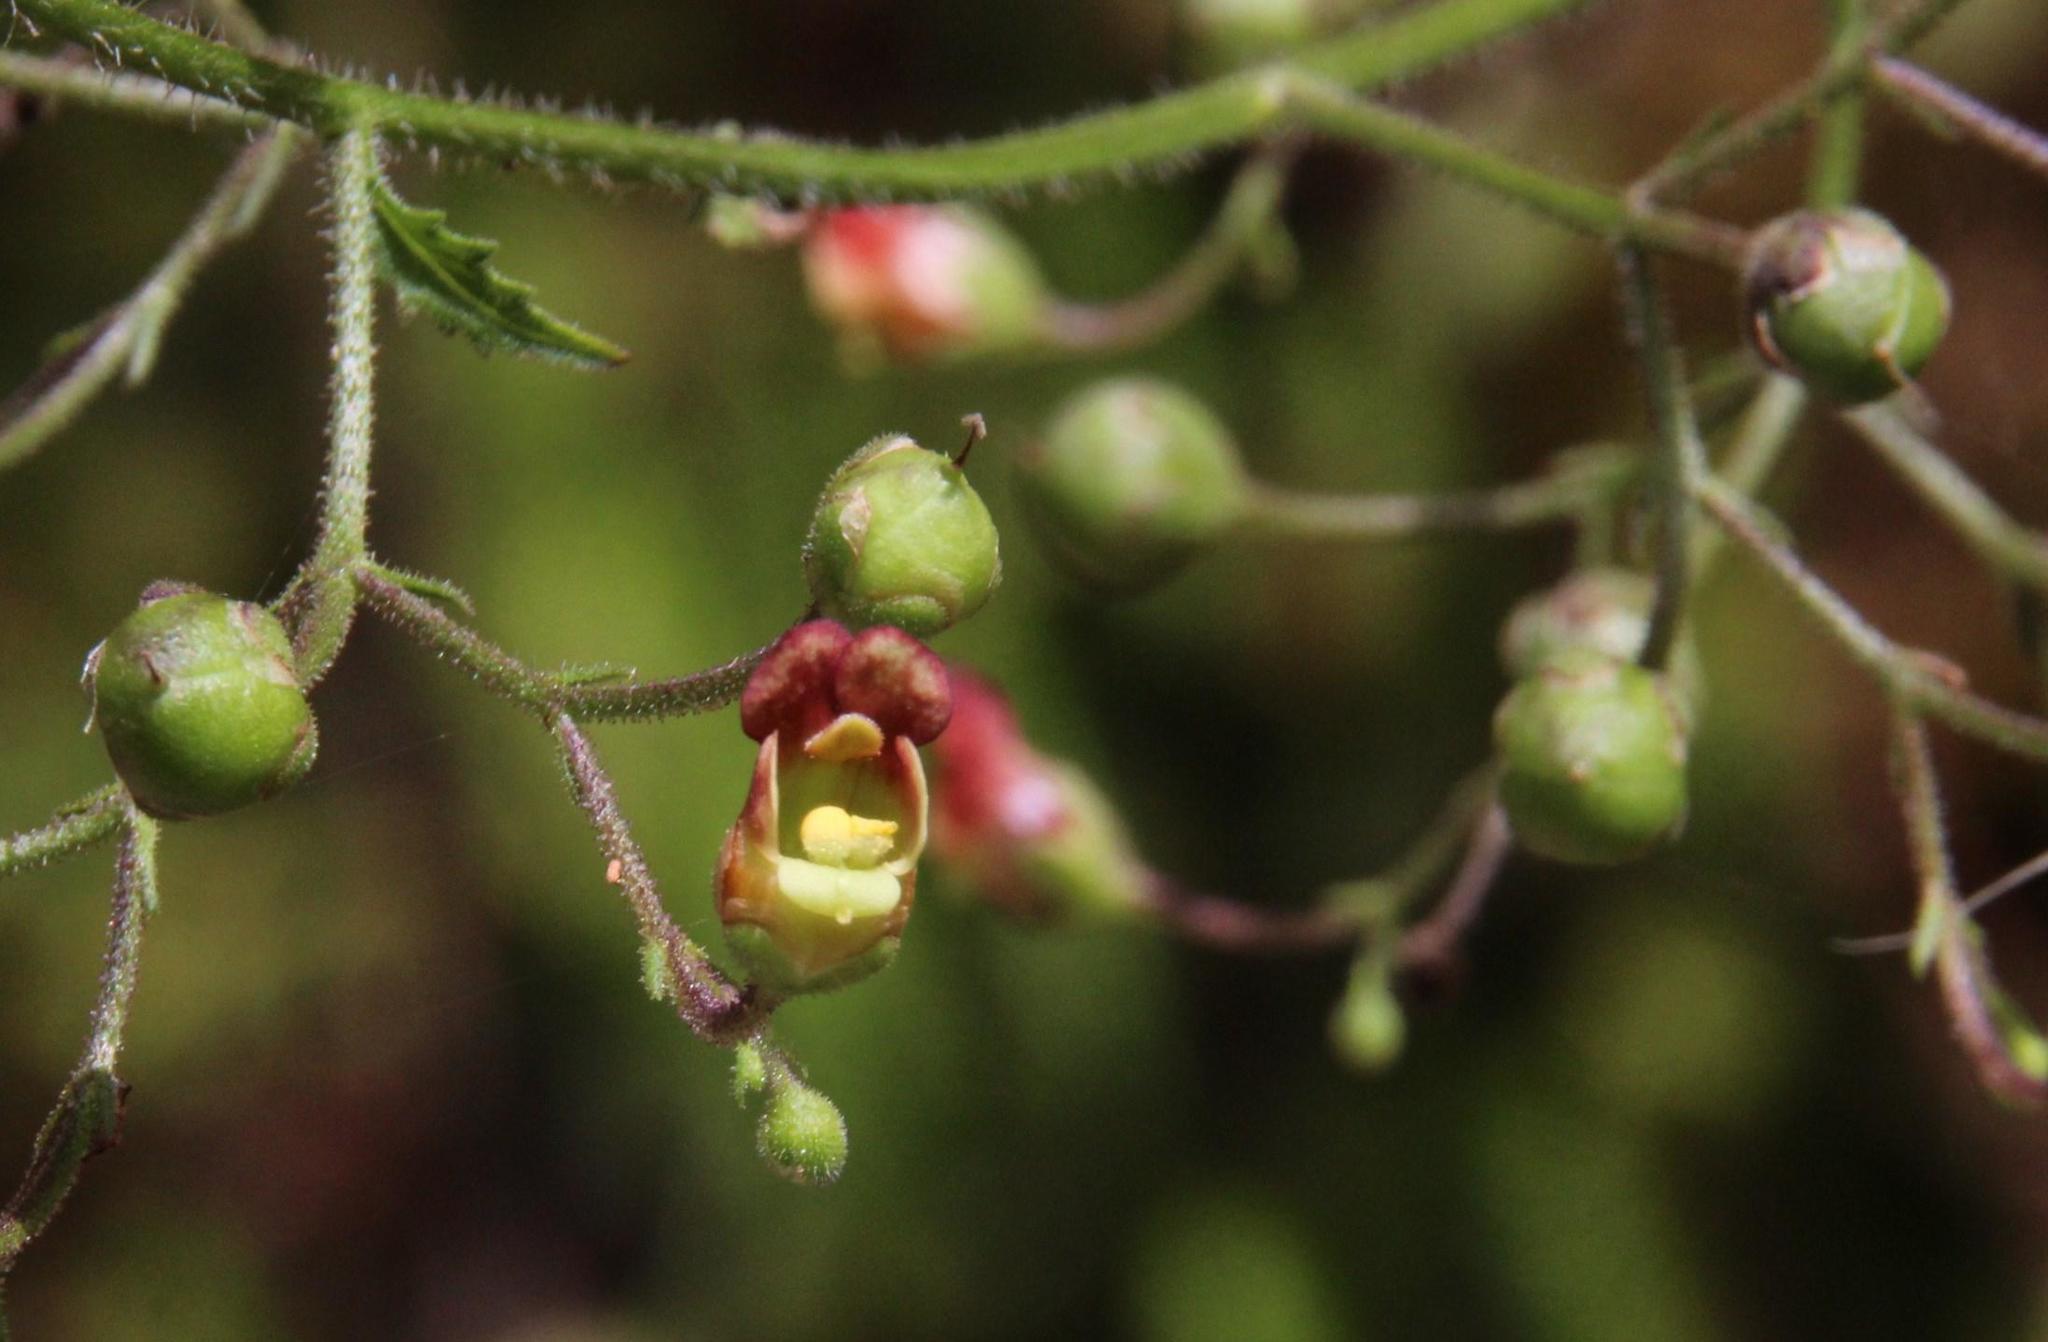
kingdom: Plantae
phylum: Tracheophyta
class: Magnoliopsida
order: Lamiales
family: Scrophulariaceae
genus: Scrophularia
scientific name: Scrophularia scorodonia
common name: Balm-leaved figwort
